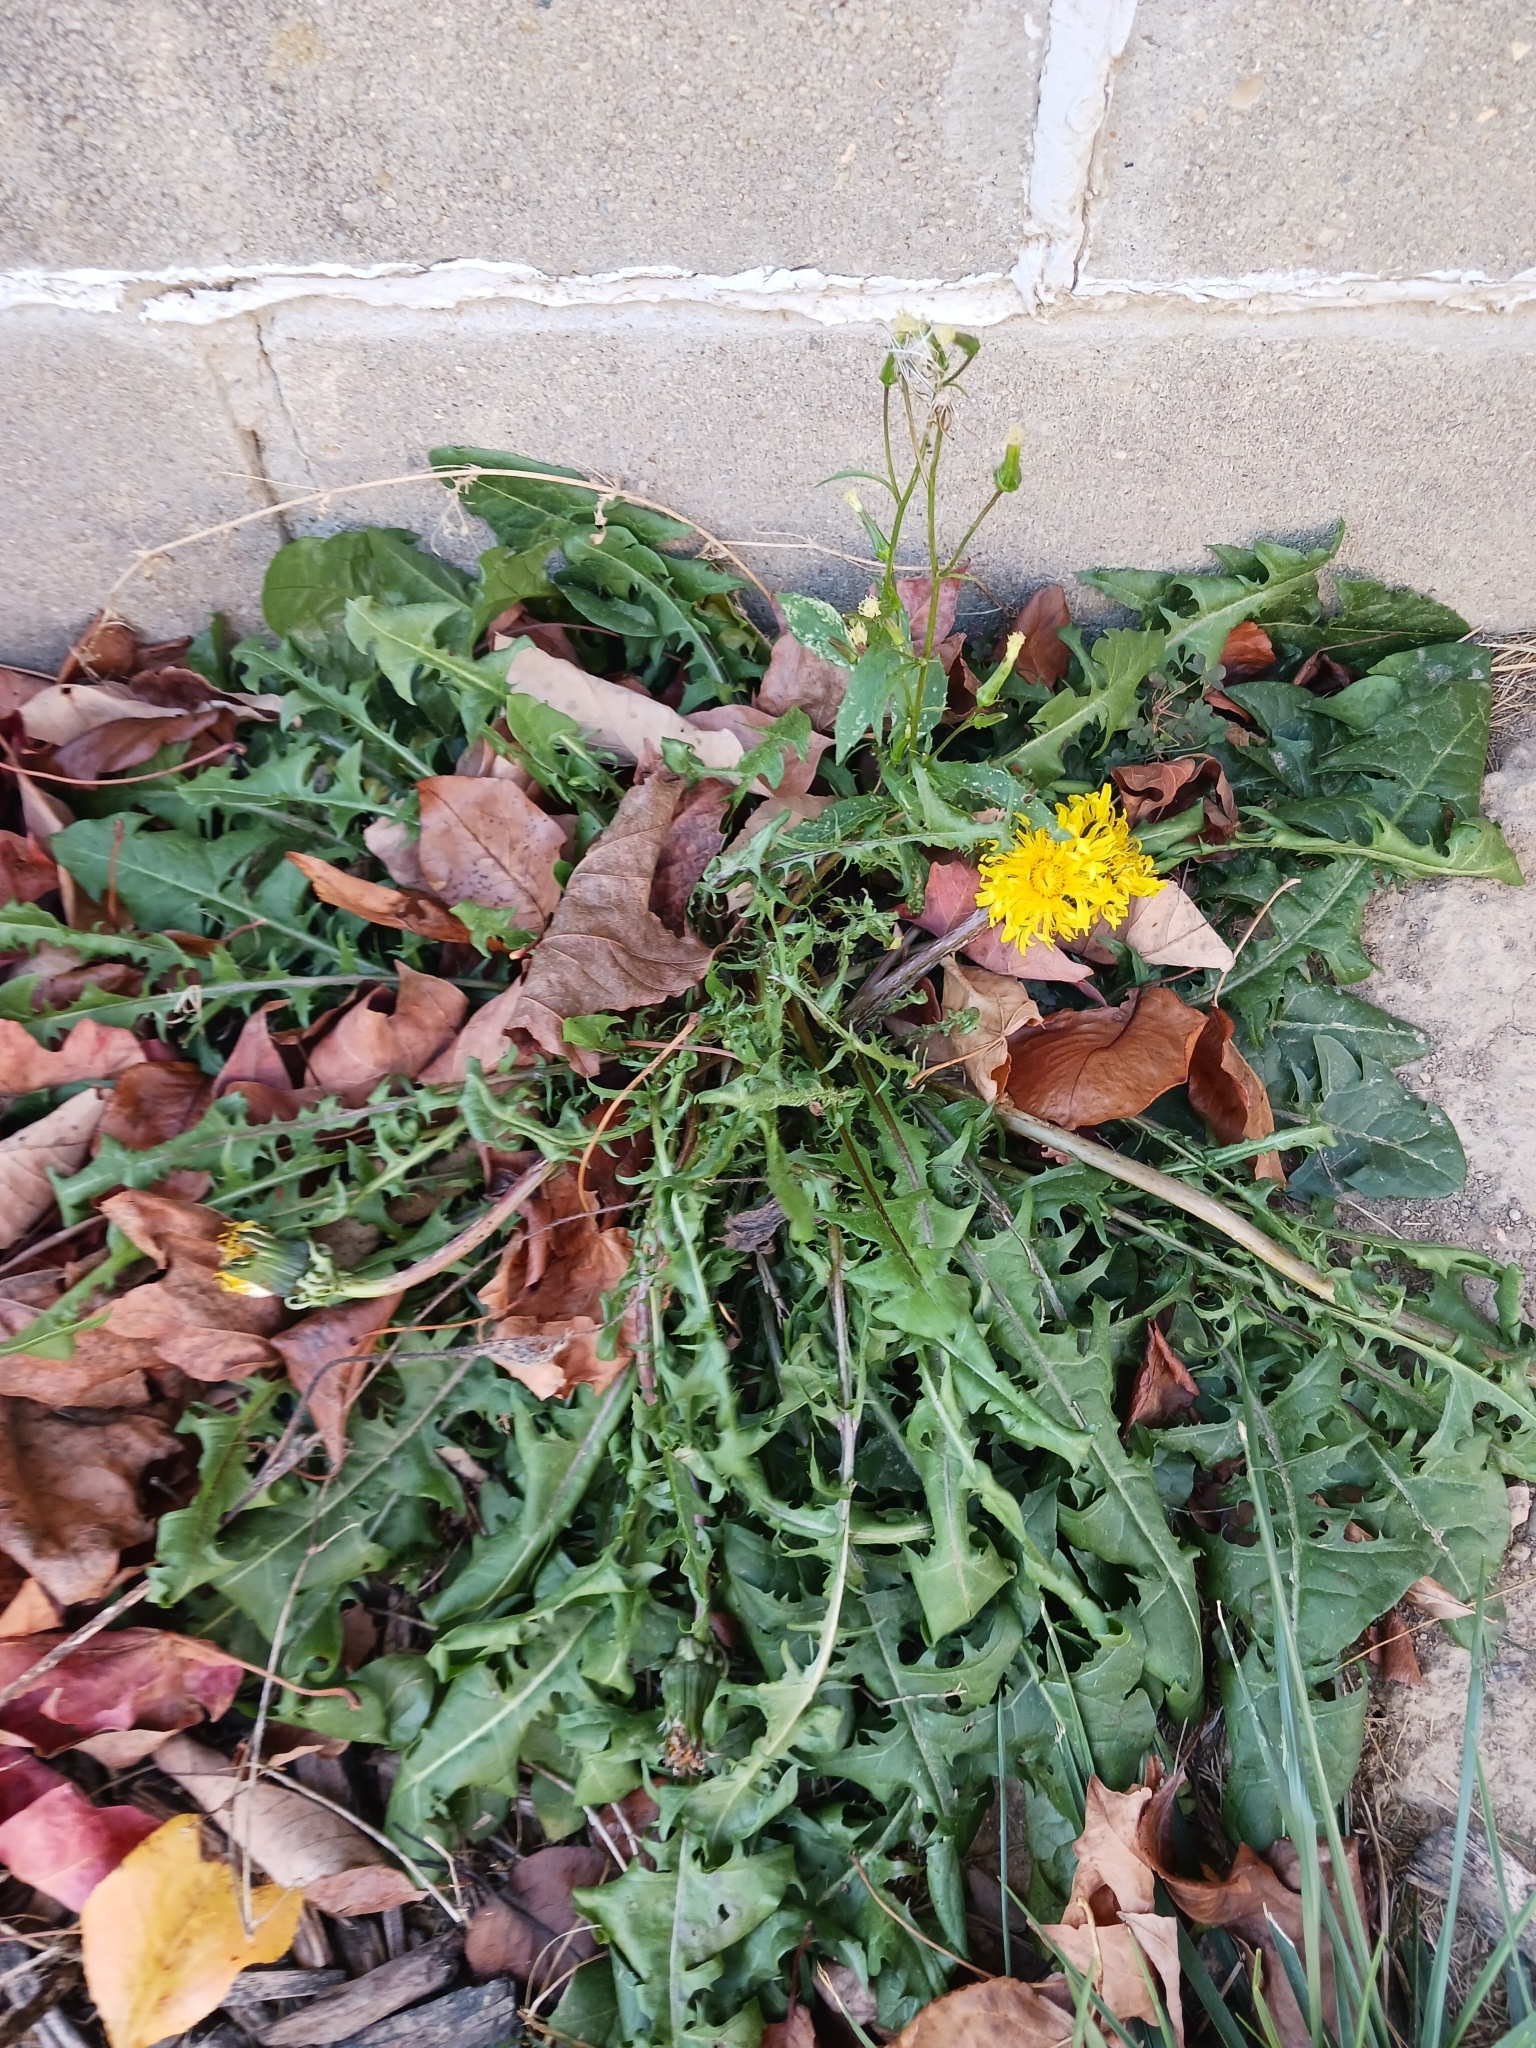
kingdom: Plantae
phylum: Tracheophyta
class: Magnoliopsida
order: Asterales
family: Asteraceae
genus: Taraxacum
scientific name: Taraxacum
